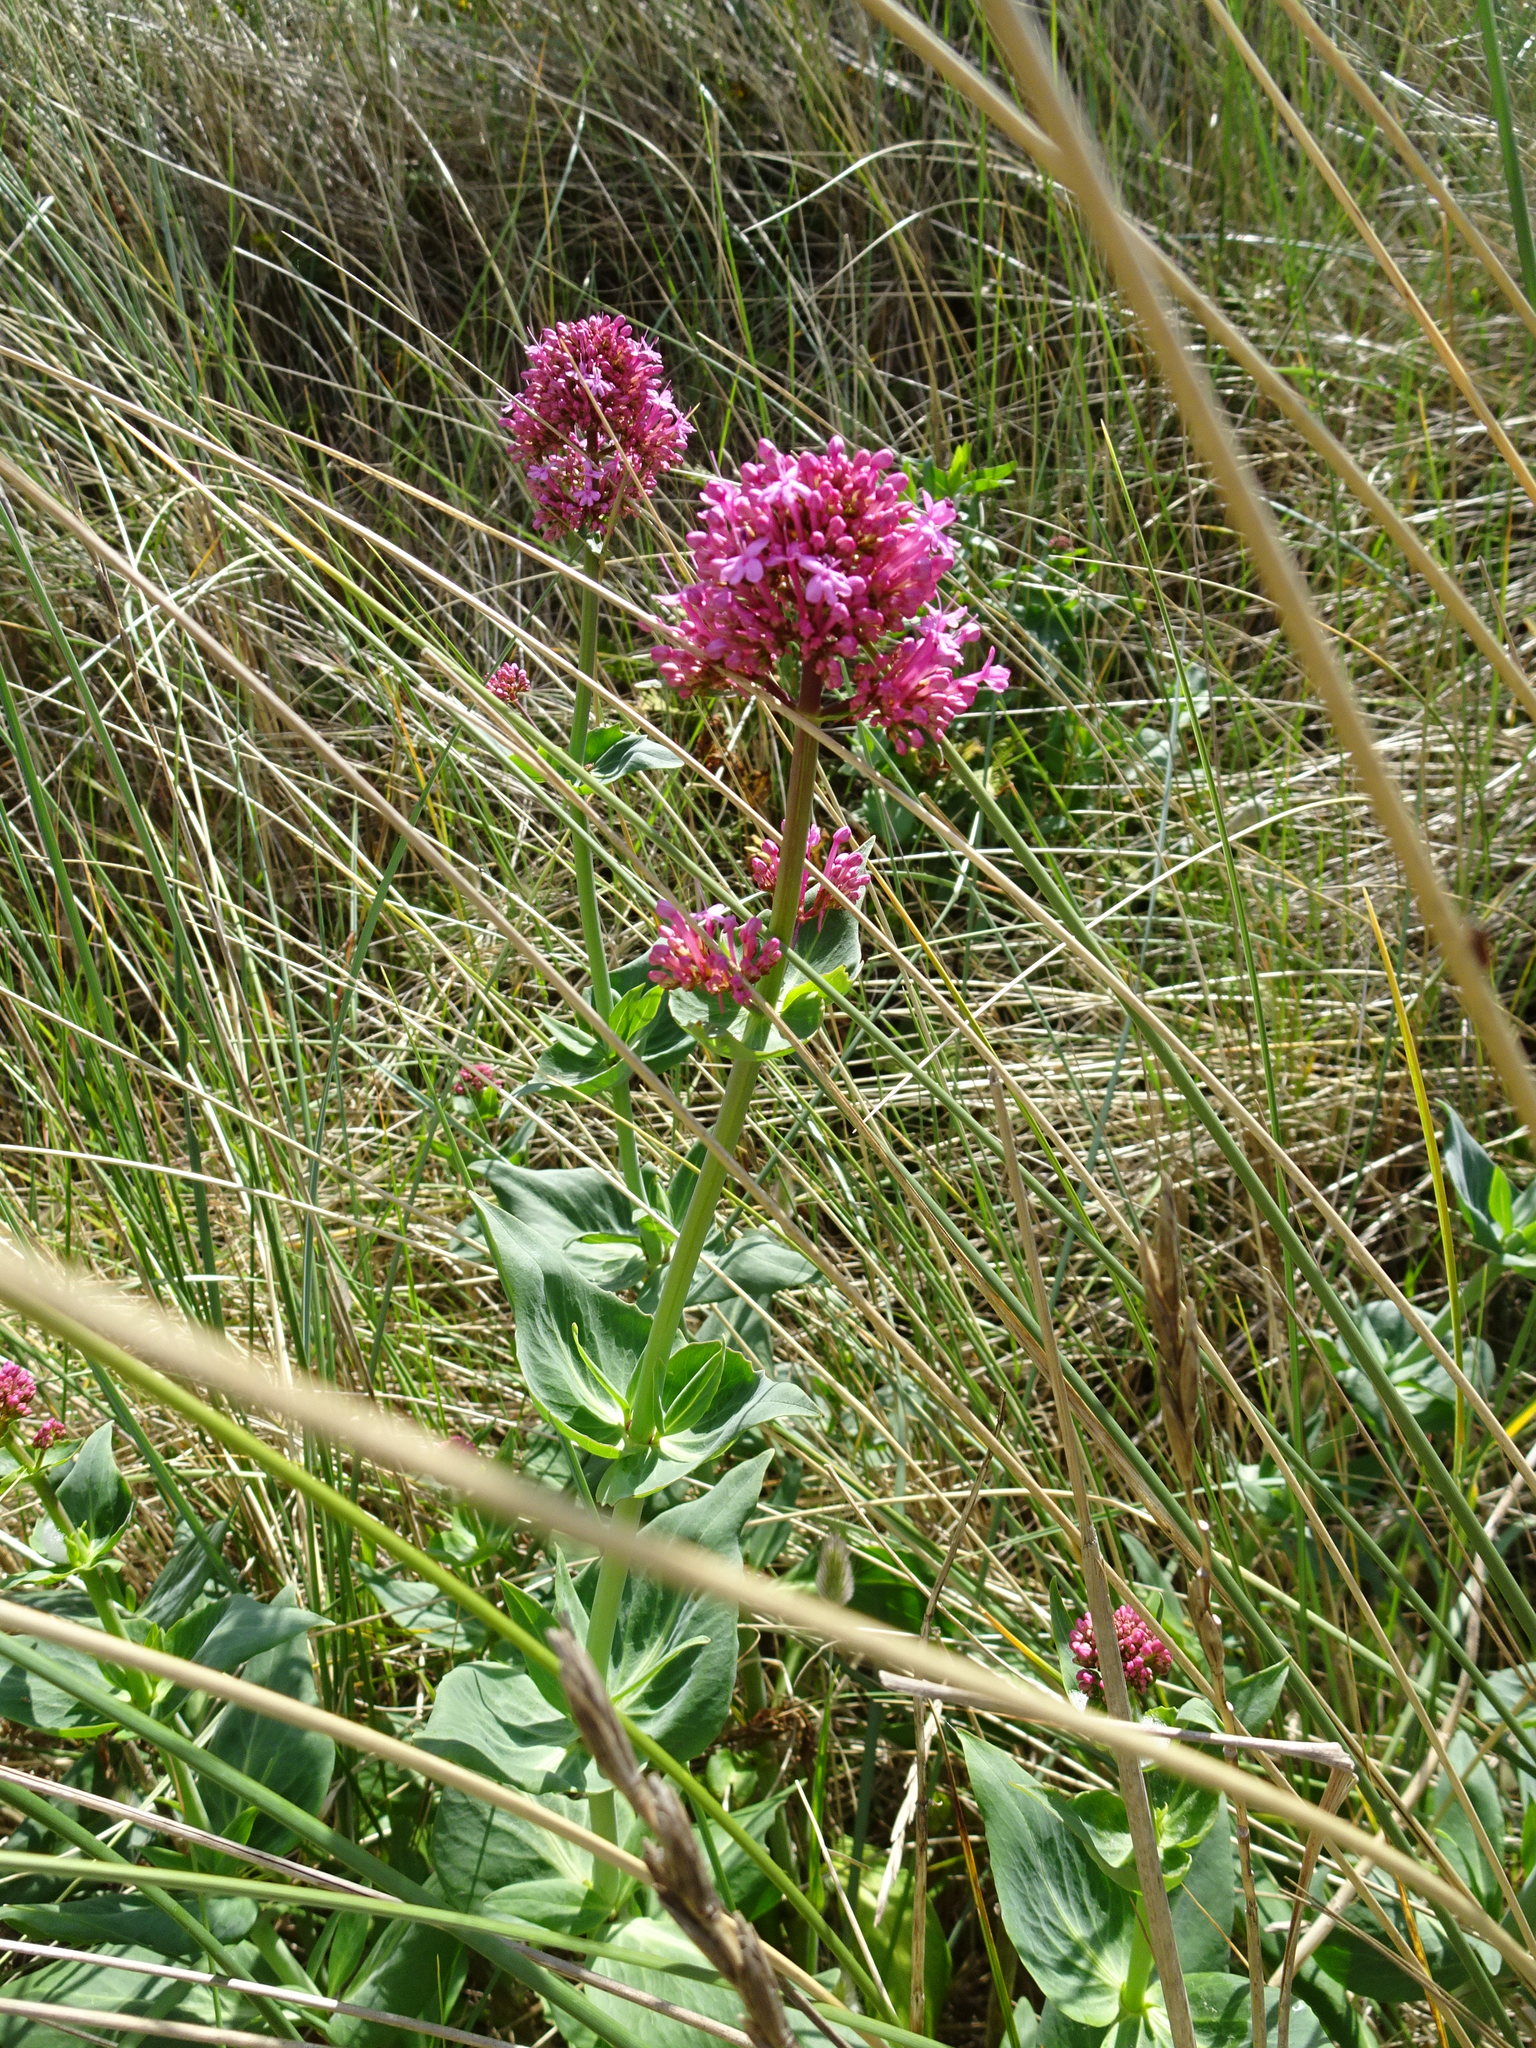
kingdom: Plantae
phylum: Tracheophyta
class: Magnoliopsida
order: Dipsacales
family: Caprifoliaceae
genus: Centranthus
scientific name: Centranthus ruber
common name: Red valerian
